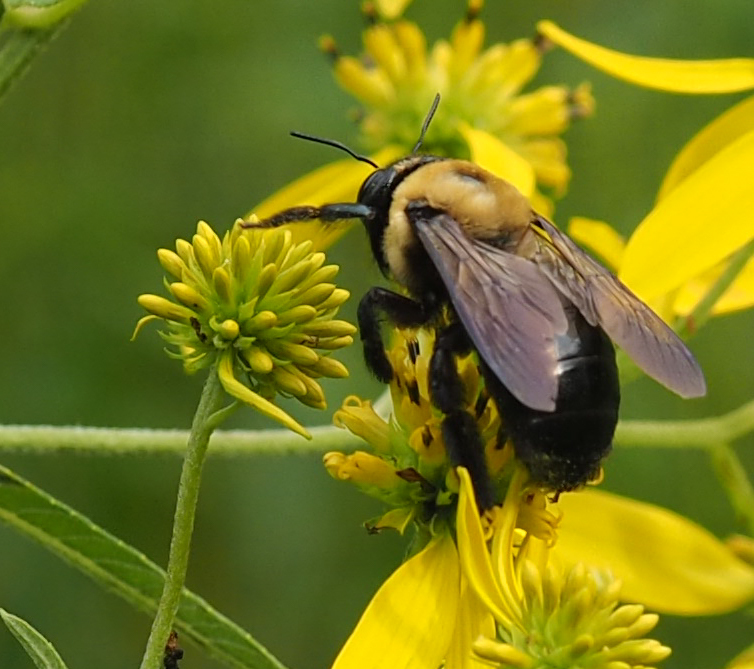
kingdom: Animalia
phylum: Arthropoda
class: Insecta
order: Hymenoptera
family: Apidae
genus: Xylocopa
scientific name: Xylocopa virginica
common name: Carpenter bee
